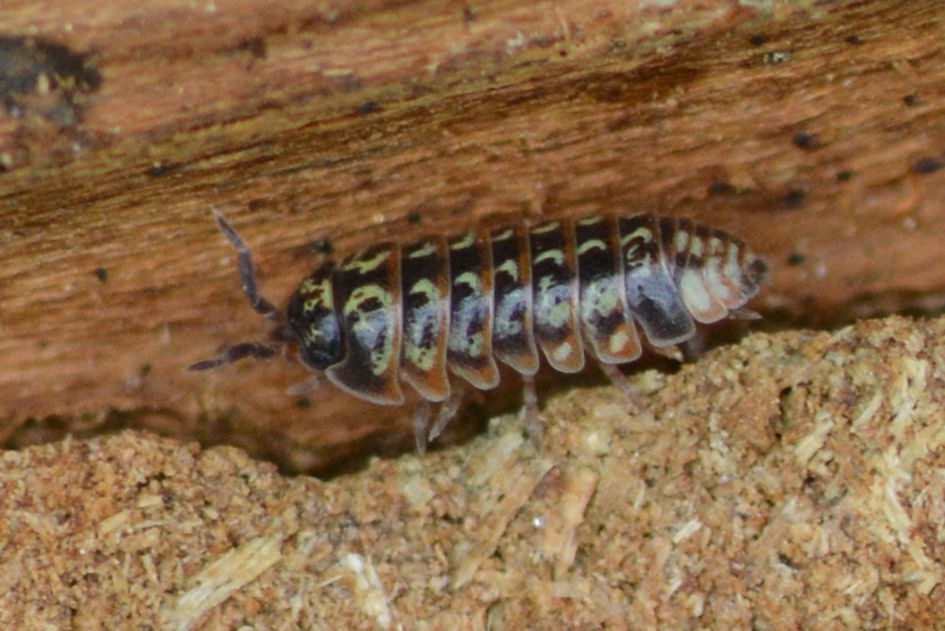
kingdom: Animalia
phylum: Arthropoda
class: Malacostraca
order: Isopoda
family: Armadillidiidae
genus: Armadillidium
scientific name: Armadillidium pictum
